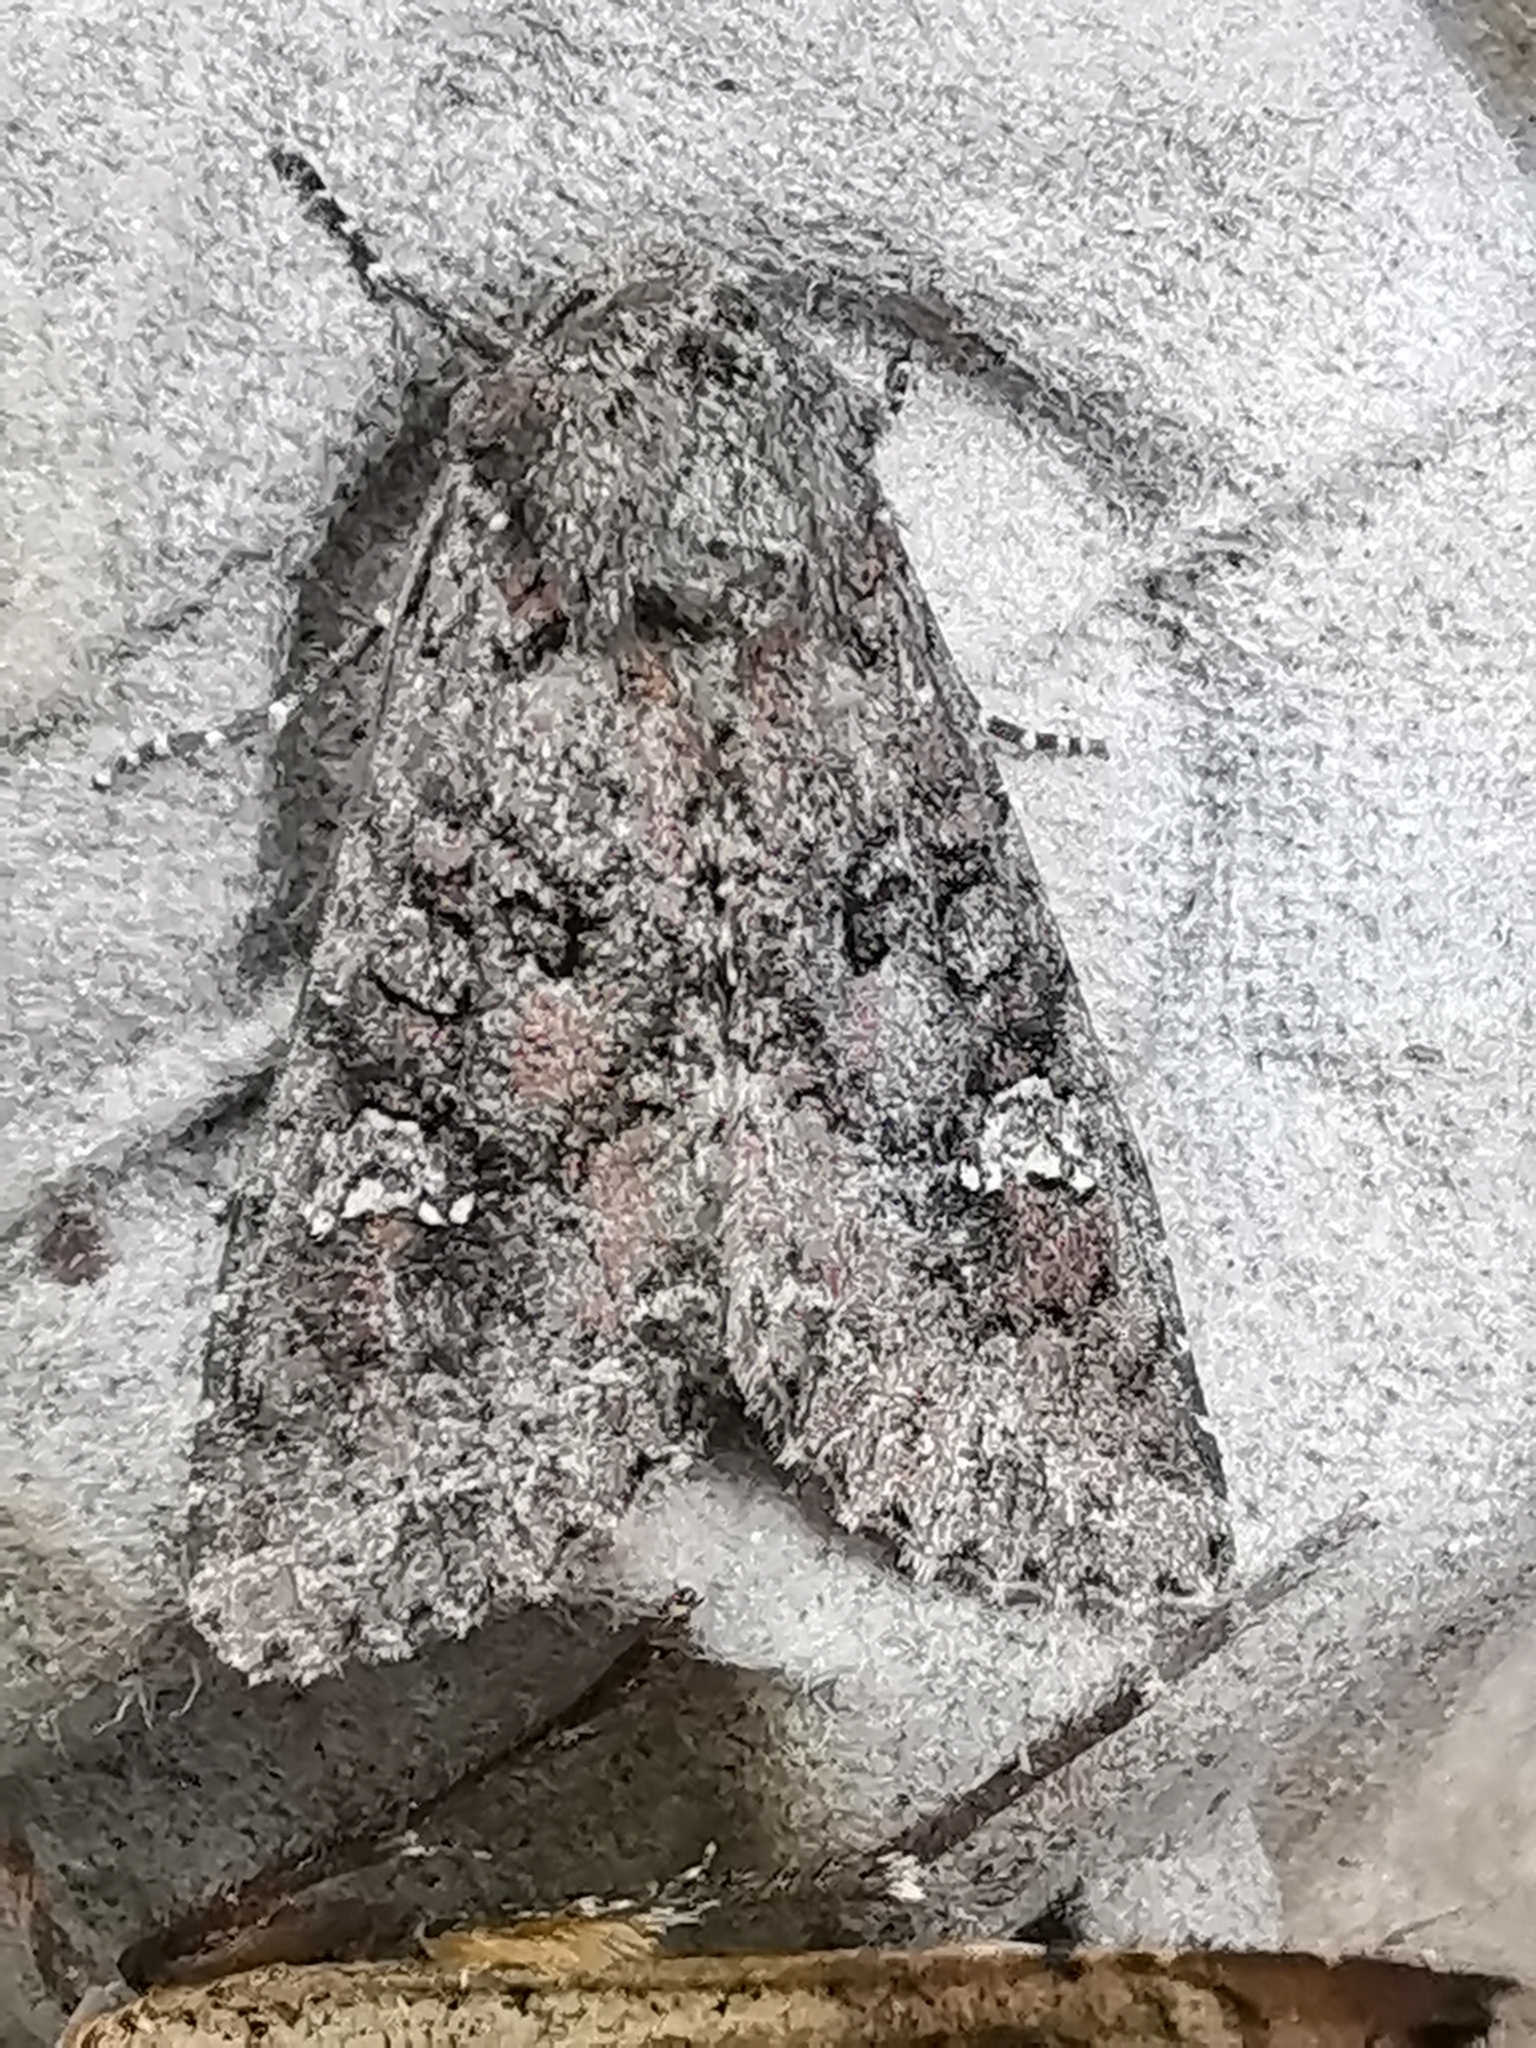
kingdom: Animalia
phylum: Arthropoda
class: Insecta
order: Lepidoptera
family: Noctuidae
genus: Mamestra
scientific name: Mamestra brassicae
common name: Cabbage moth
